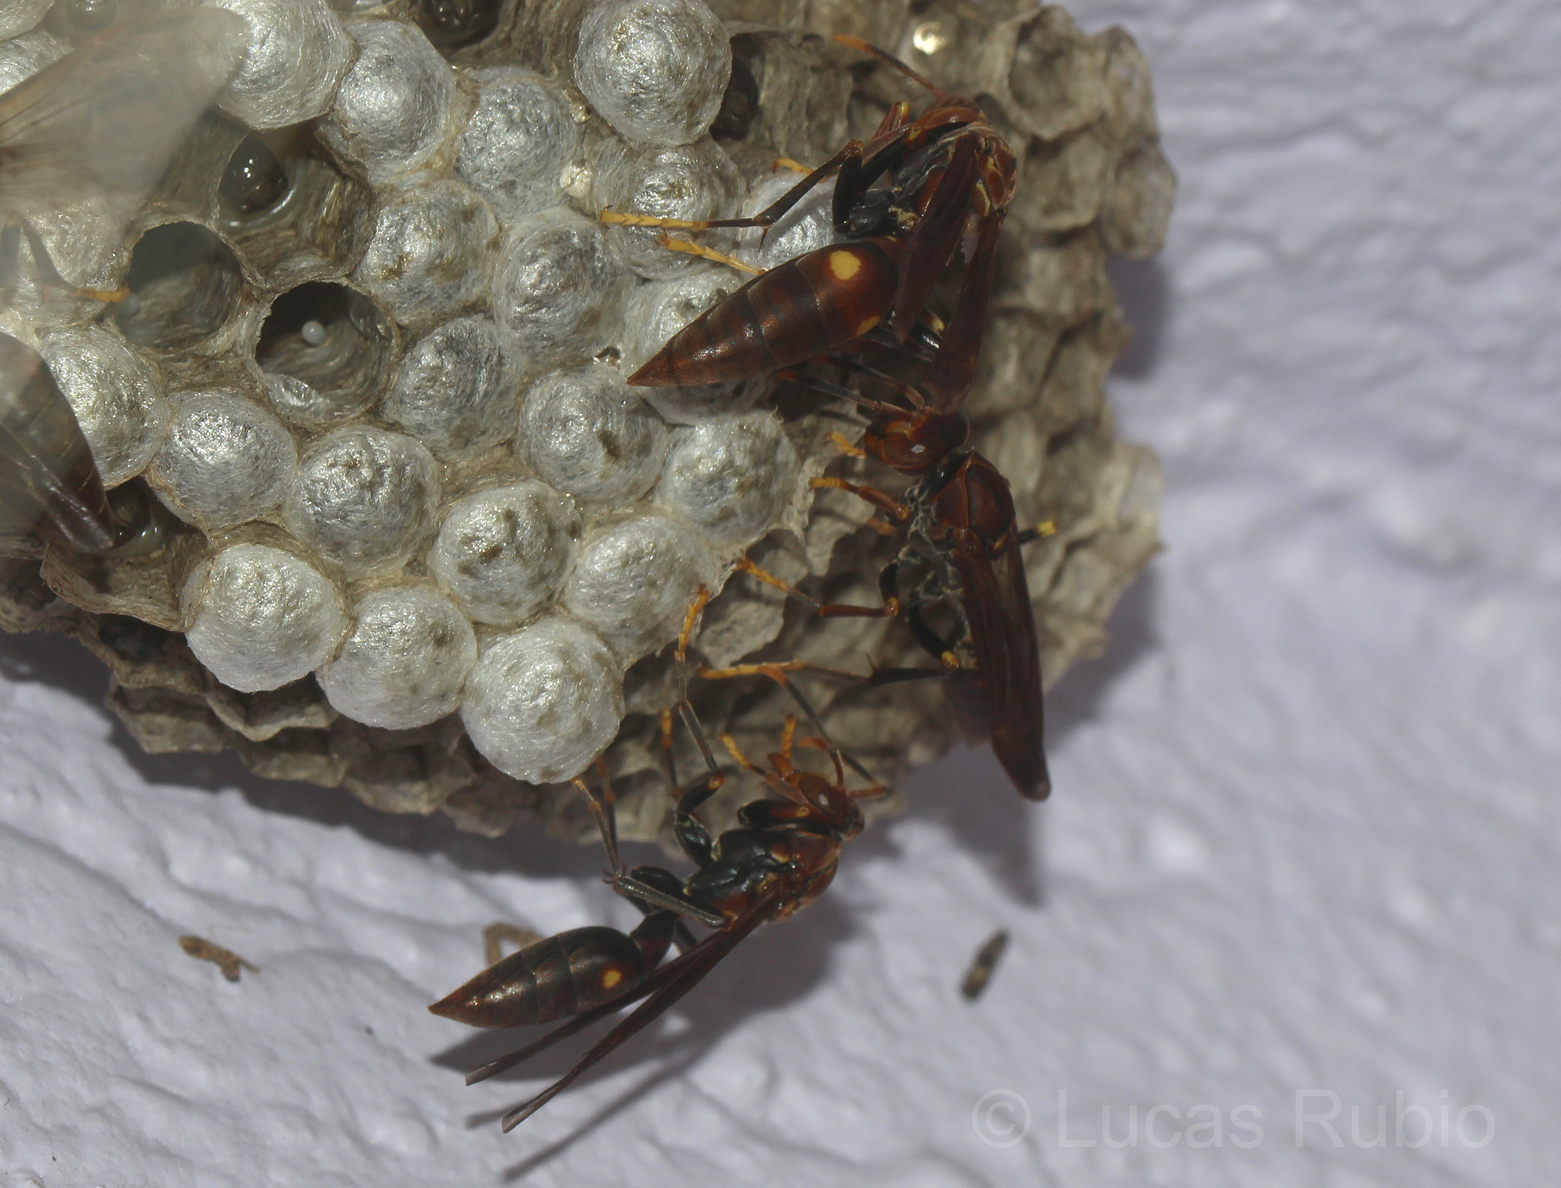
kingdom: Animalia
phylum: Arthropoda
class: Insecta
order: Hymenoptera
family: Eumenidae
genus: Polistes
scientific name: Polistes simillimus
